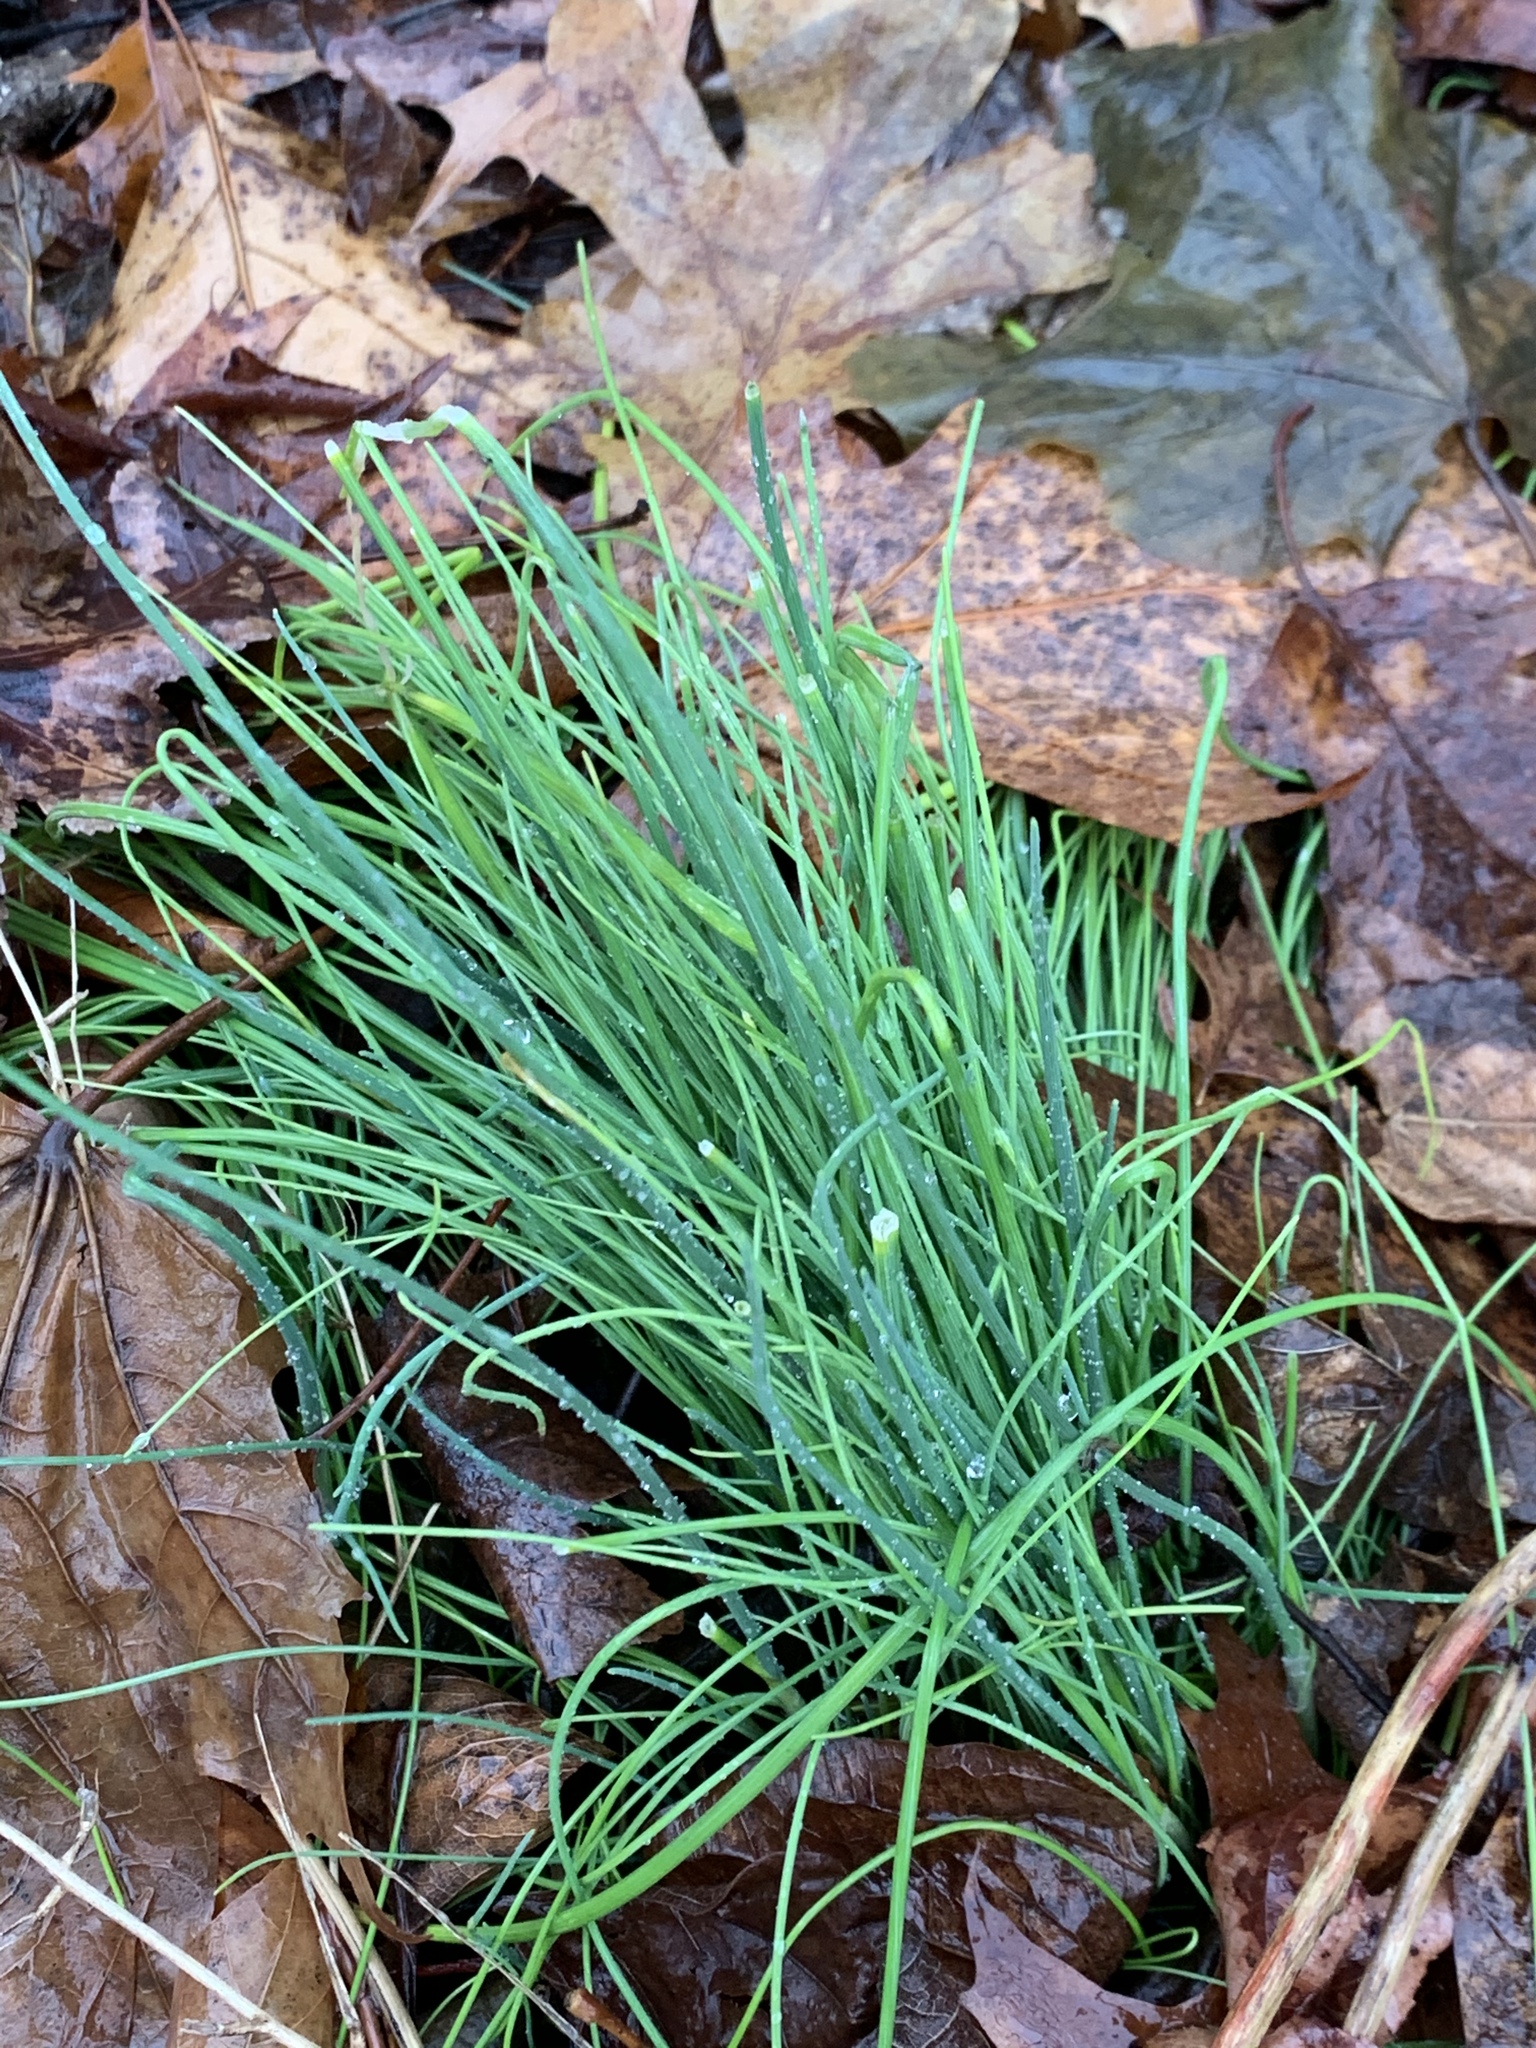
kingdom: Plantae
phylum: Tracheophyta
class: Liliopsida
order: Asparagales
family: Amaryllidaceae
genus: Allium
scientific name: Allium vineale
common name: Crow garlic
